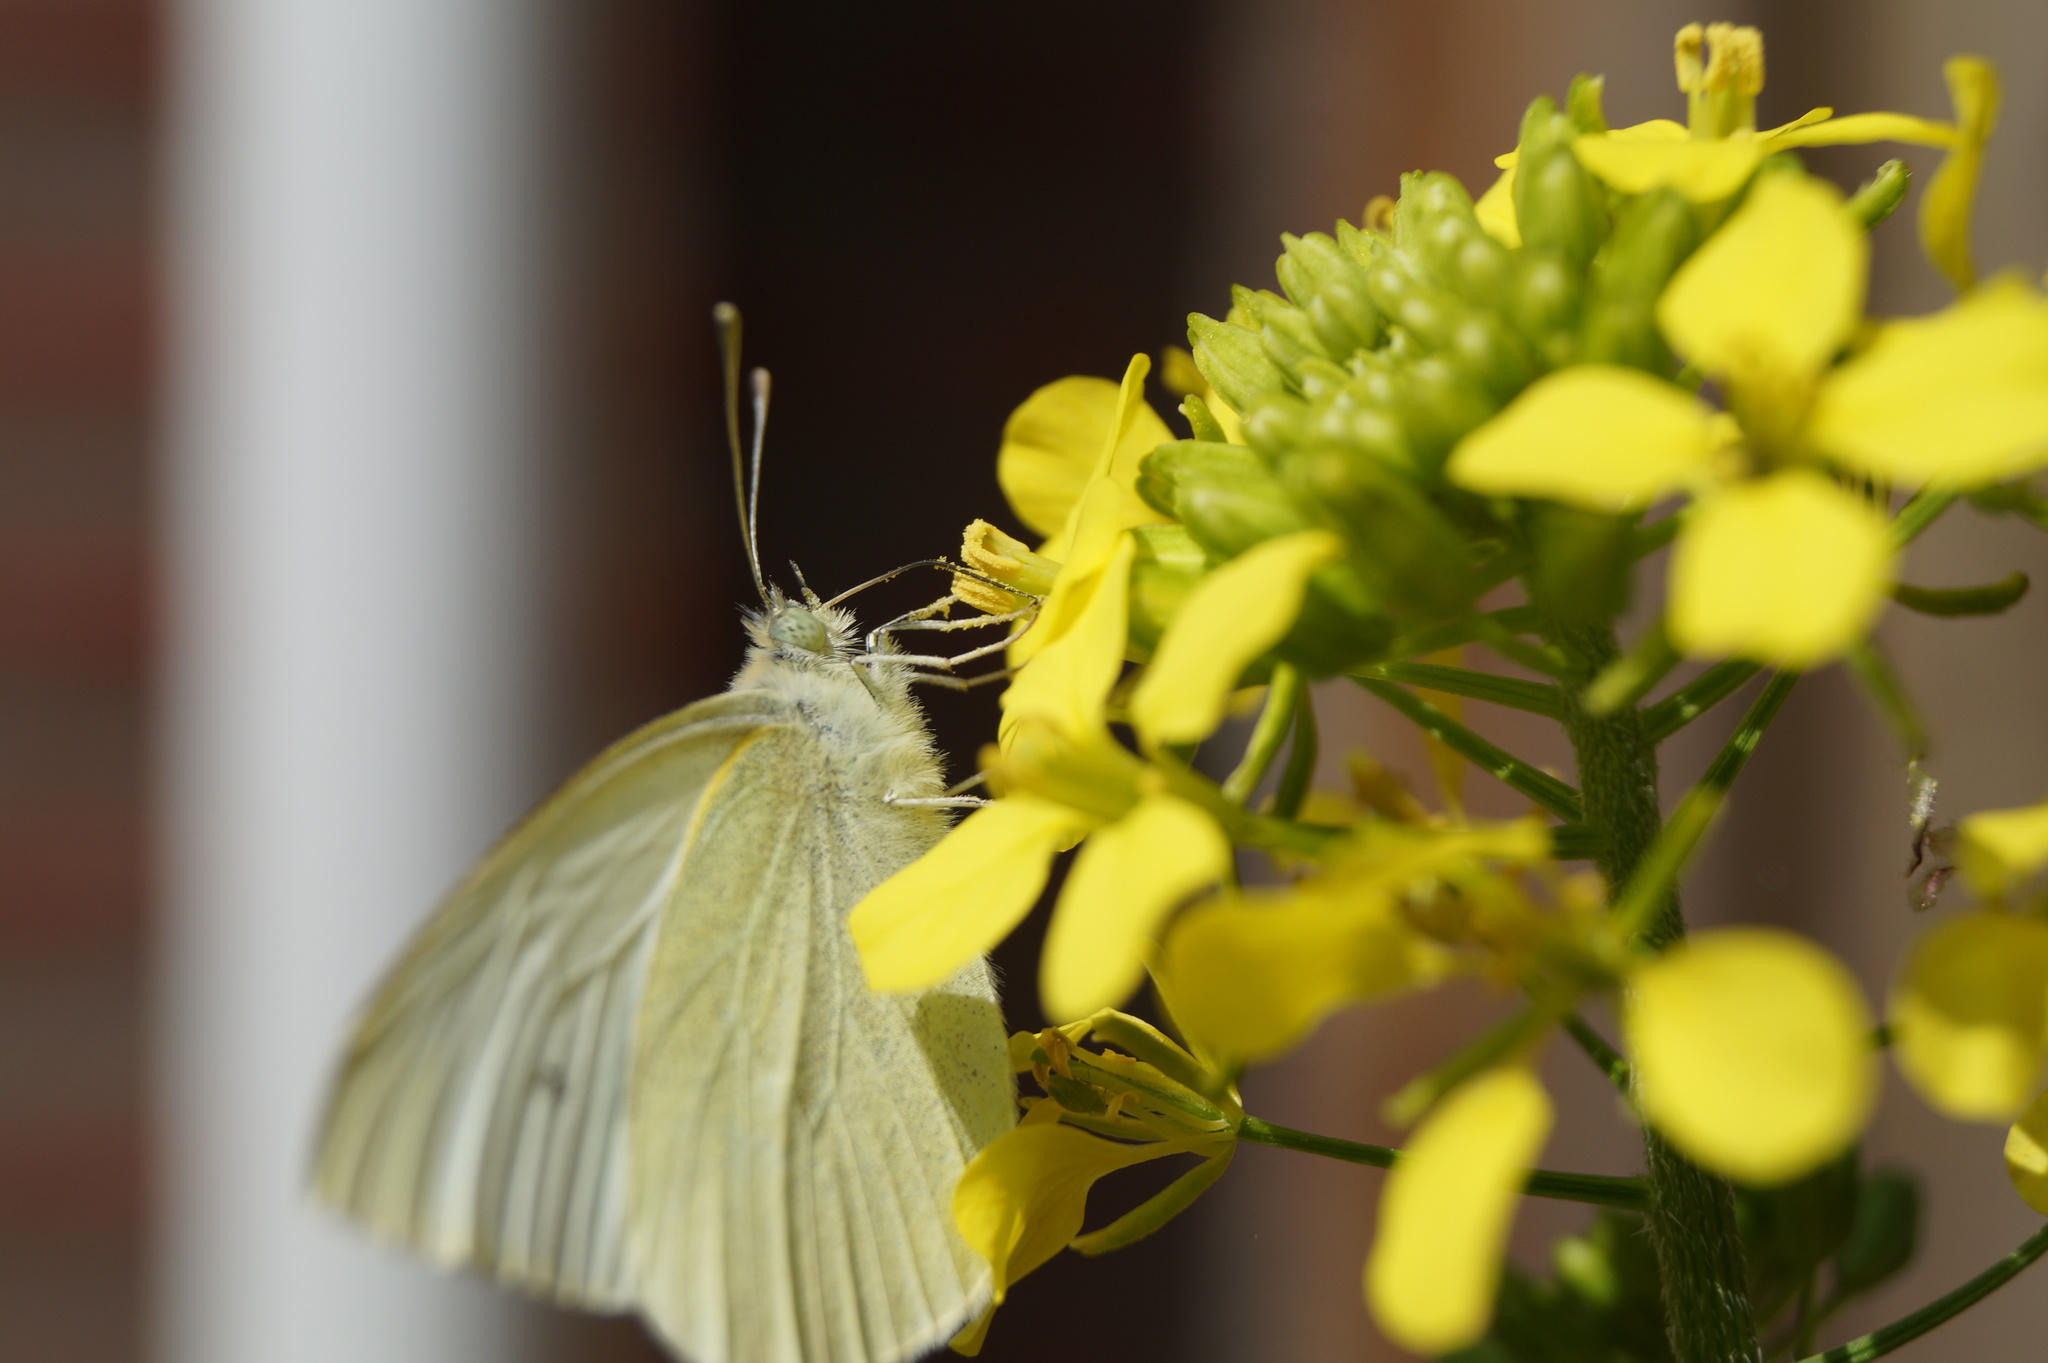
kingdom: Animalia
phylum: Arthropoda
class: Insecta
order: Lepidoptera
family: Pieridae
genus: Pieris
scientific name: Pieris rapae
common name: Small white
